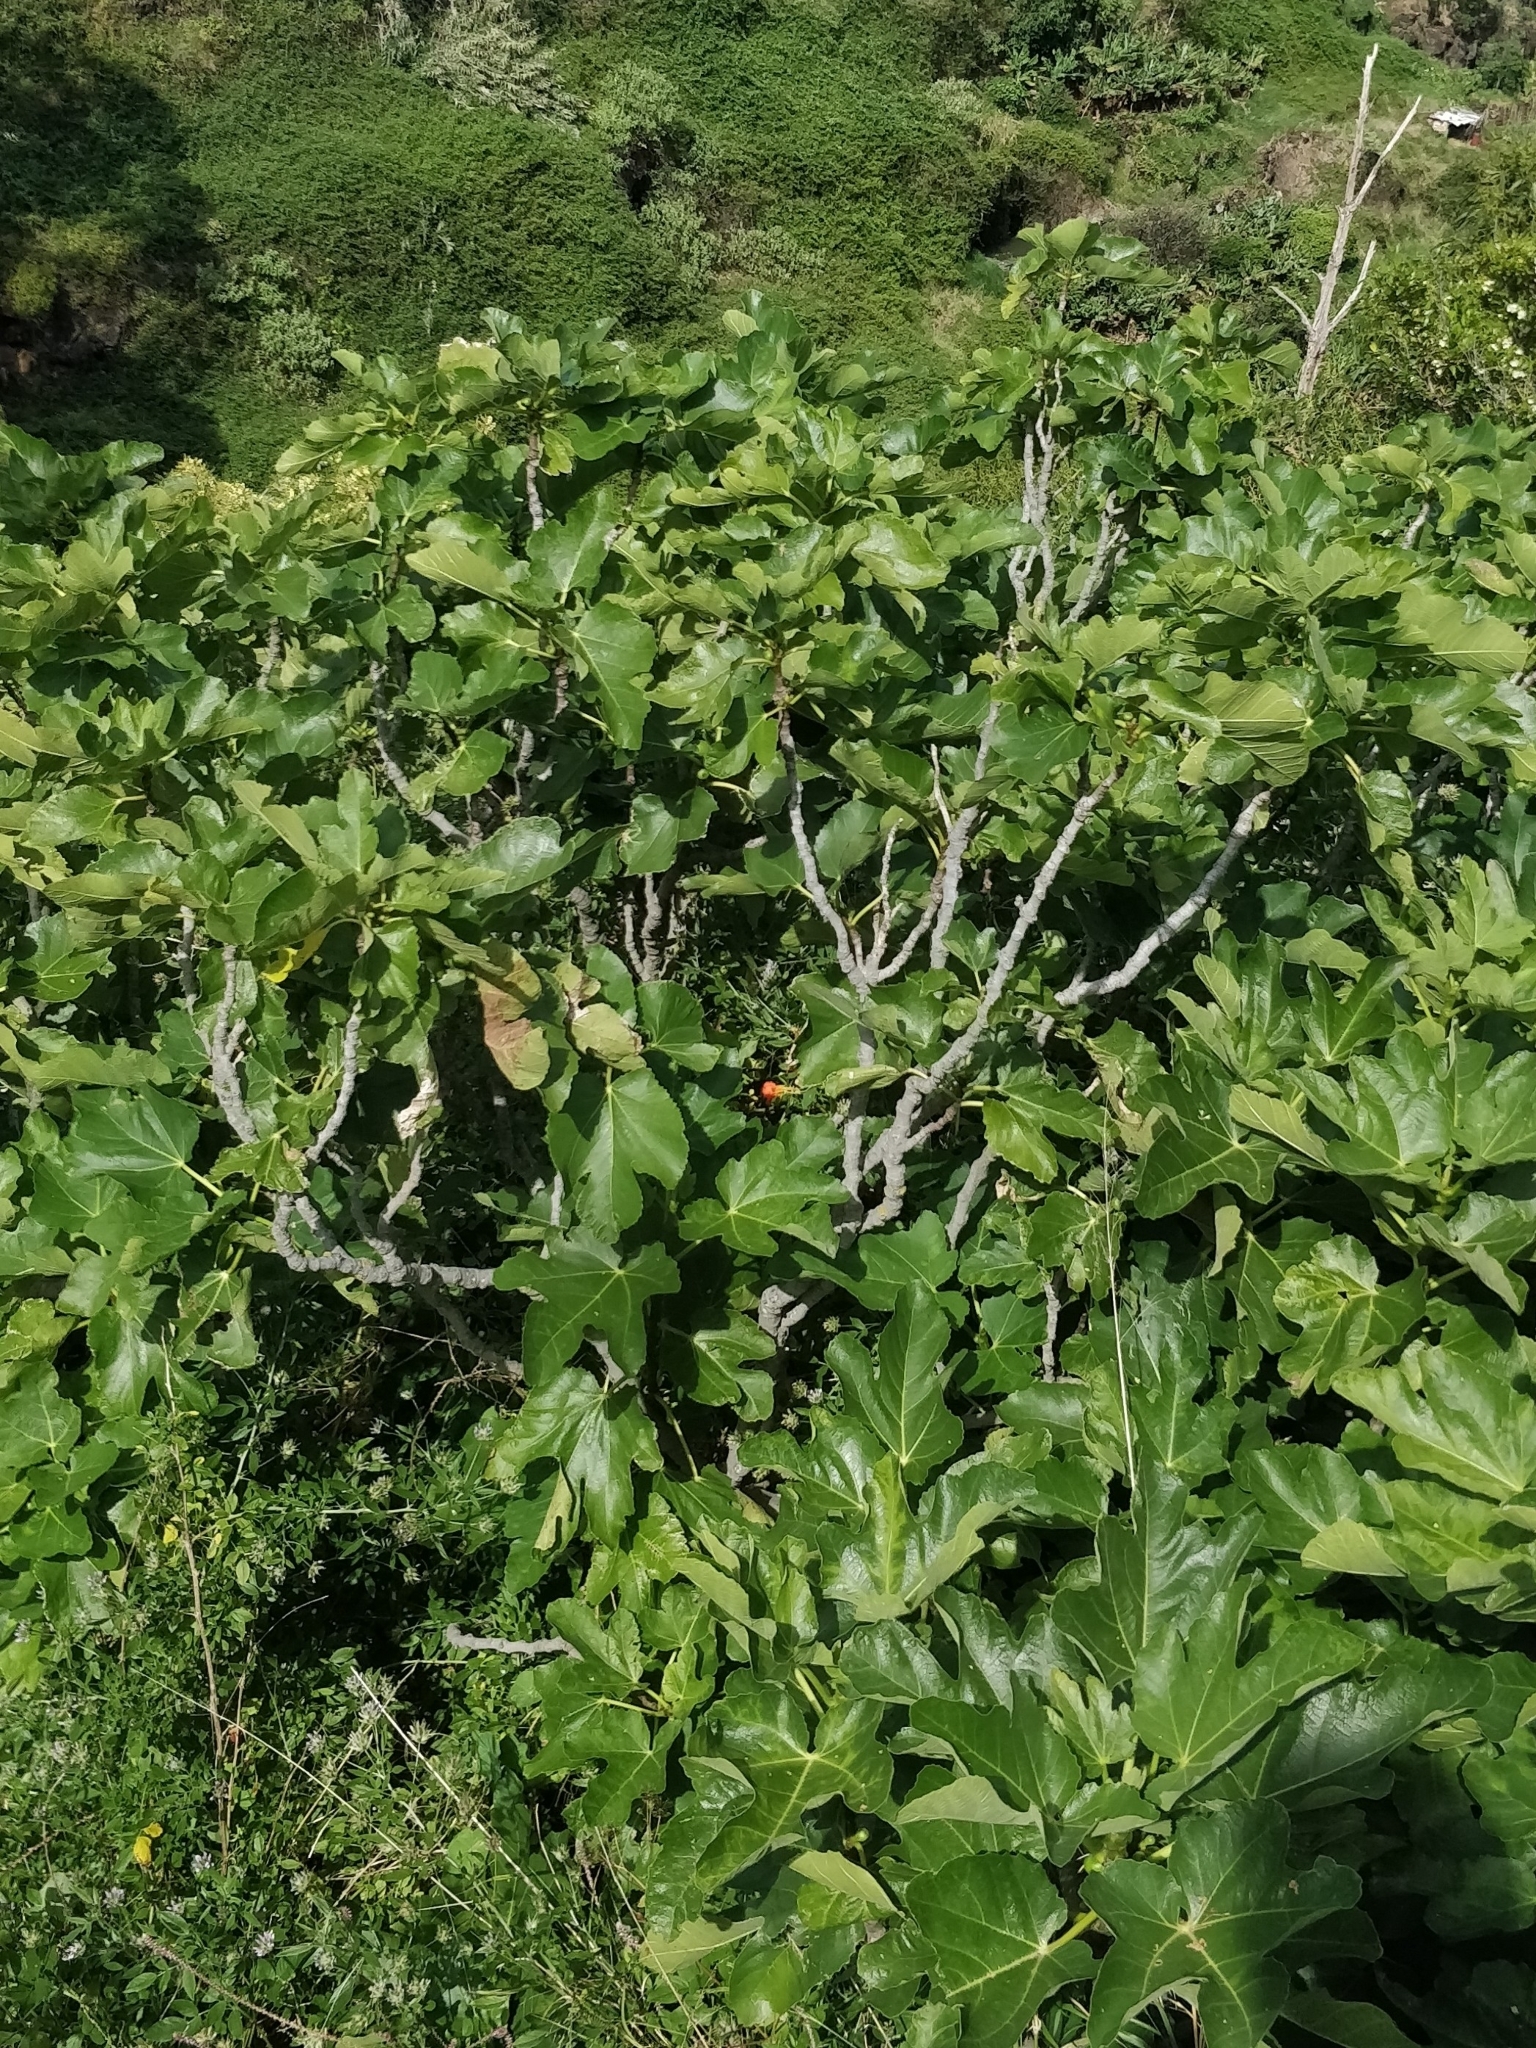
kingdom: Plantae
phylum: Tracheophyta
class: Magnoliopsida
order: Rosales
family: Moraceae
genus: Ficus
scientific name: Ficus carica
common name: Fig
